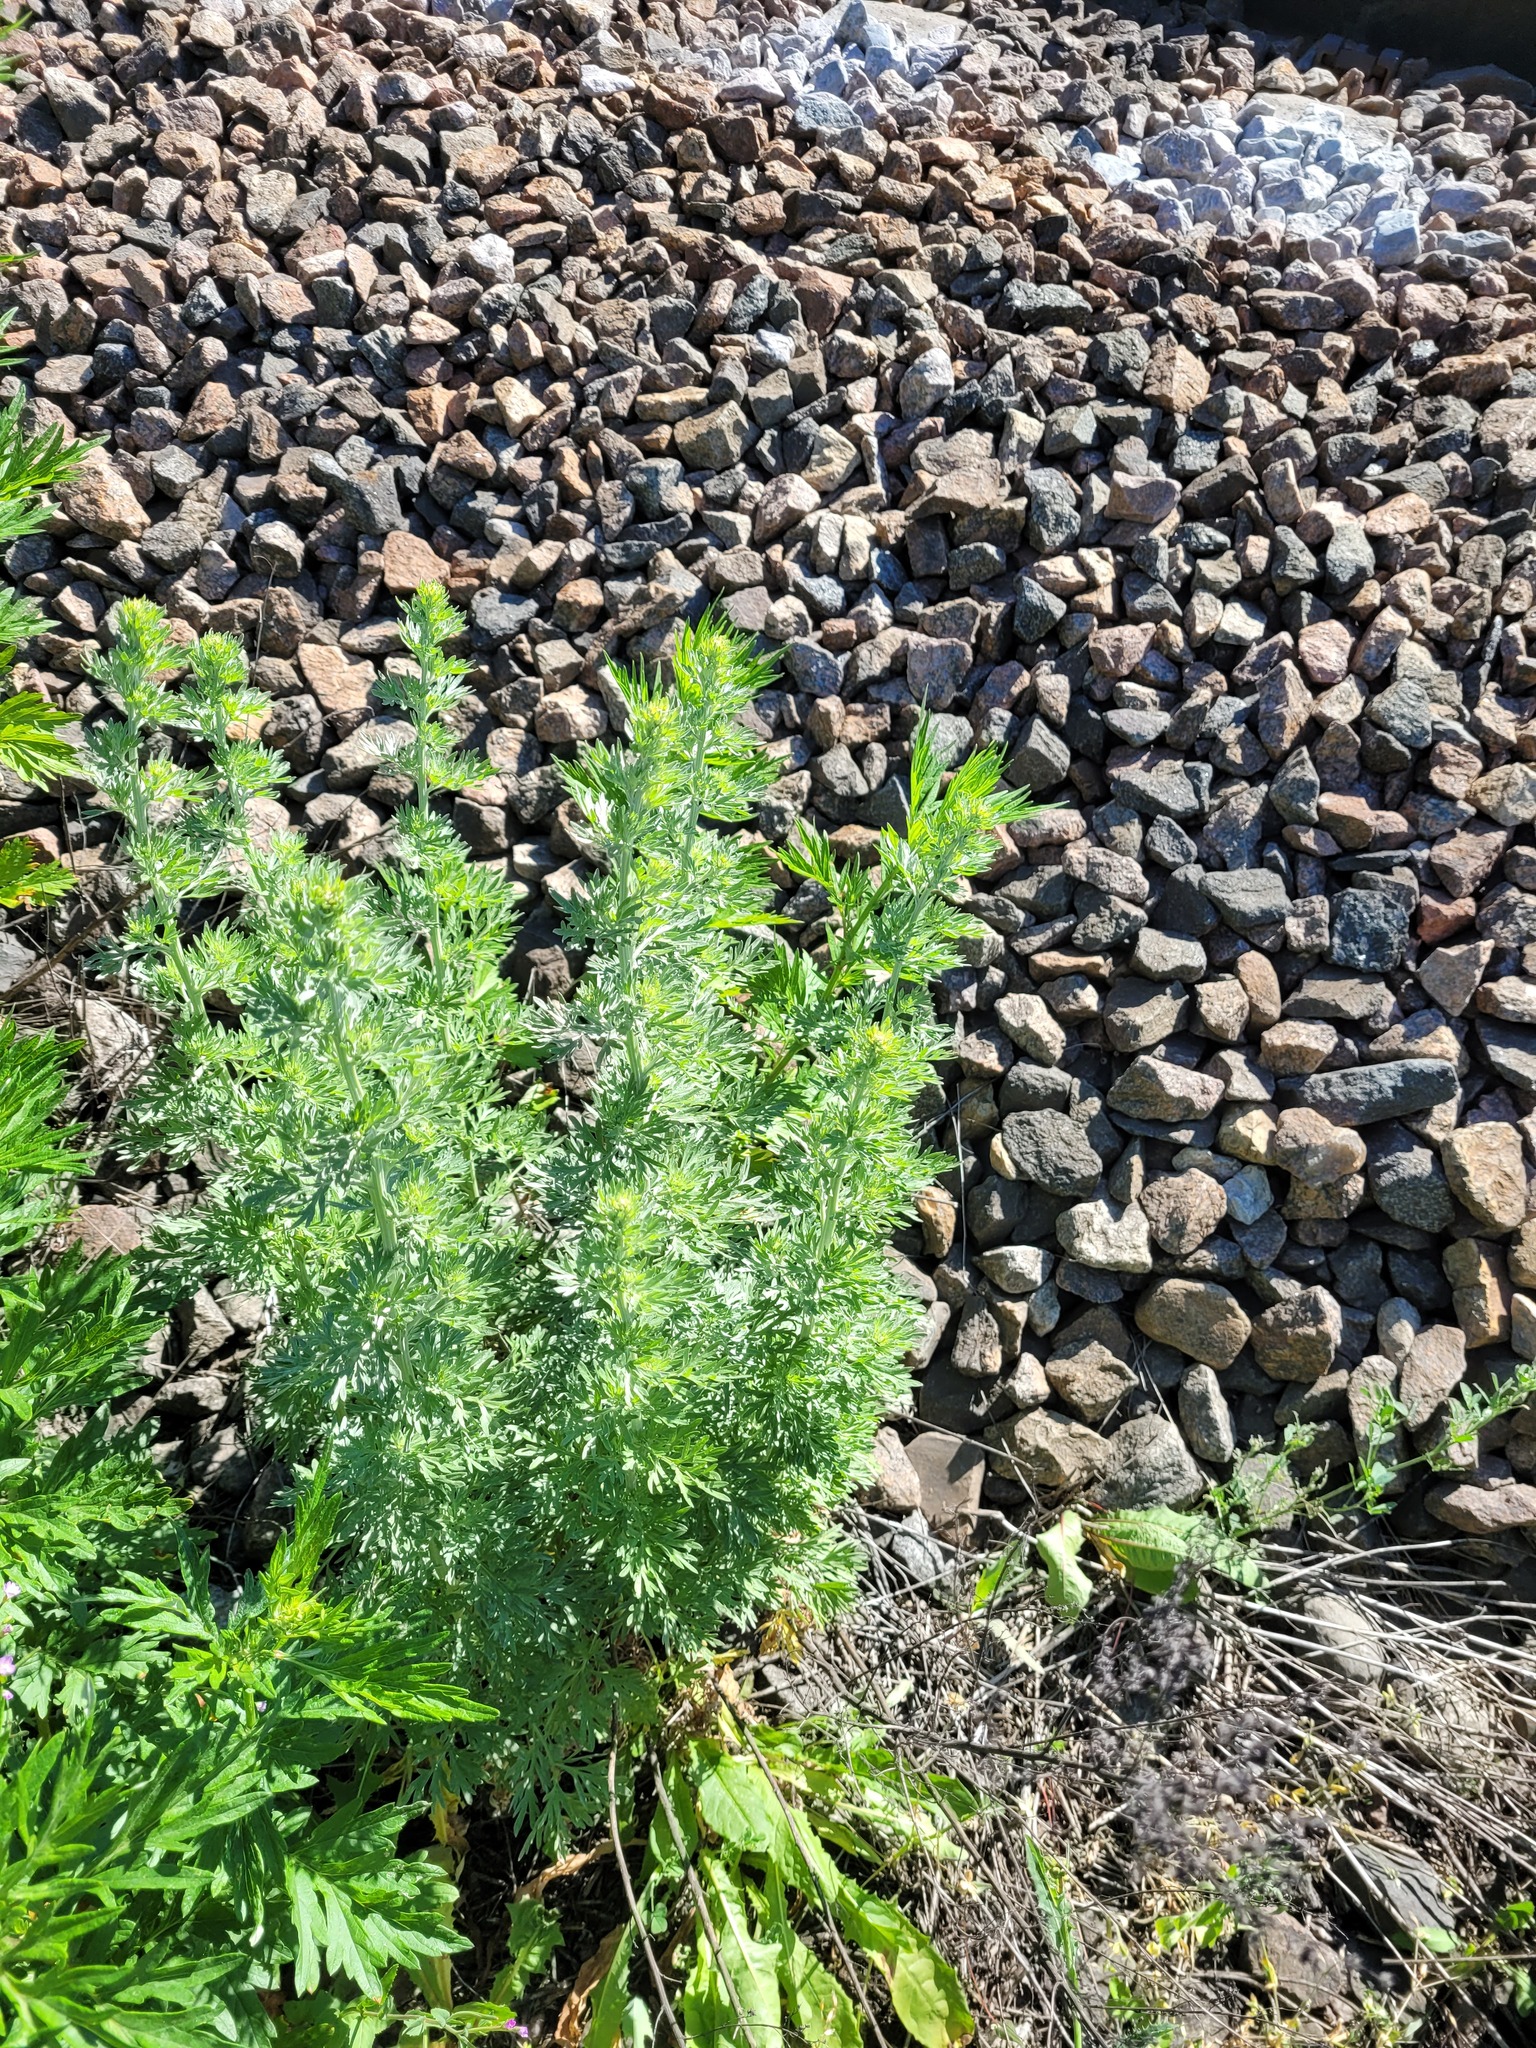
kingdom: Plantae
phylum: Tracheophyta
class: Magnoliopsida
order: Asterales
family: Asteraceae
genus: Artemisia
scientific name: Artemisia absinthium
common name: Wormwood
